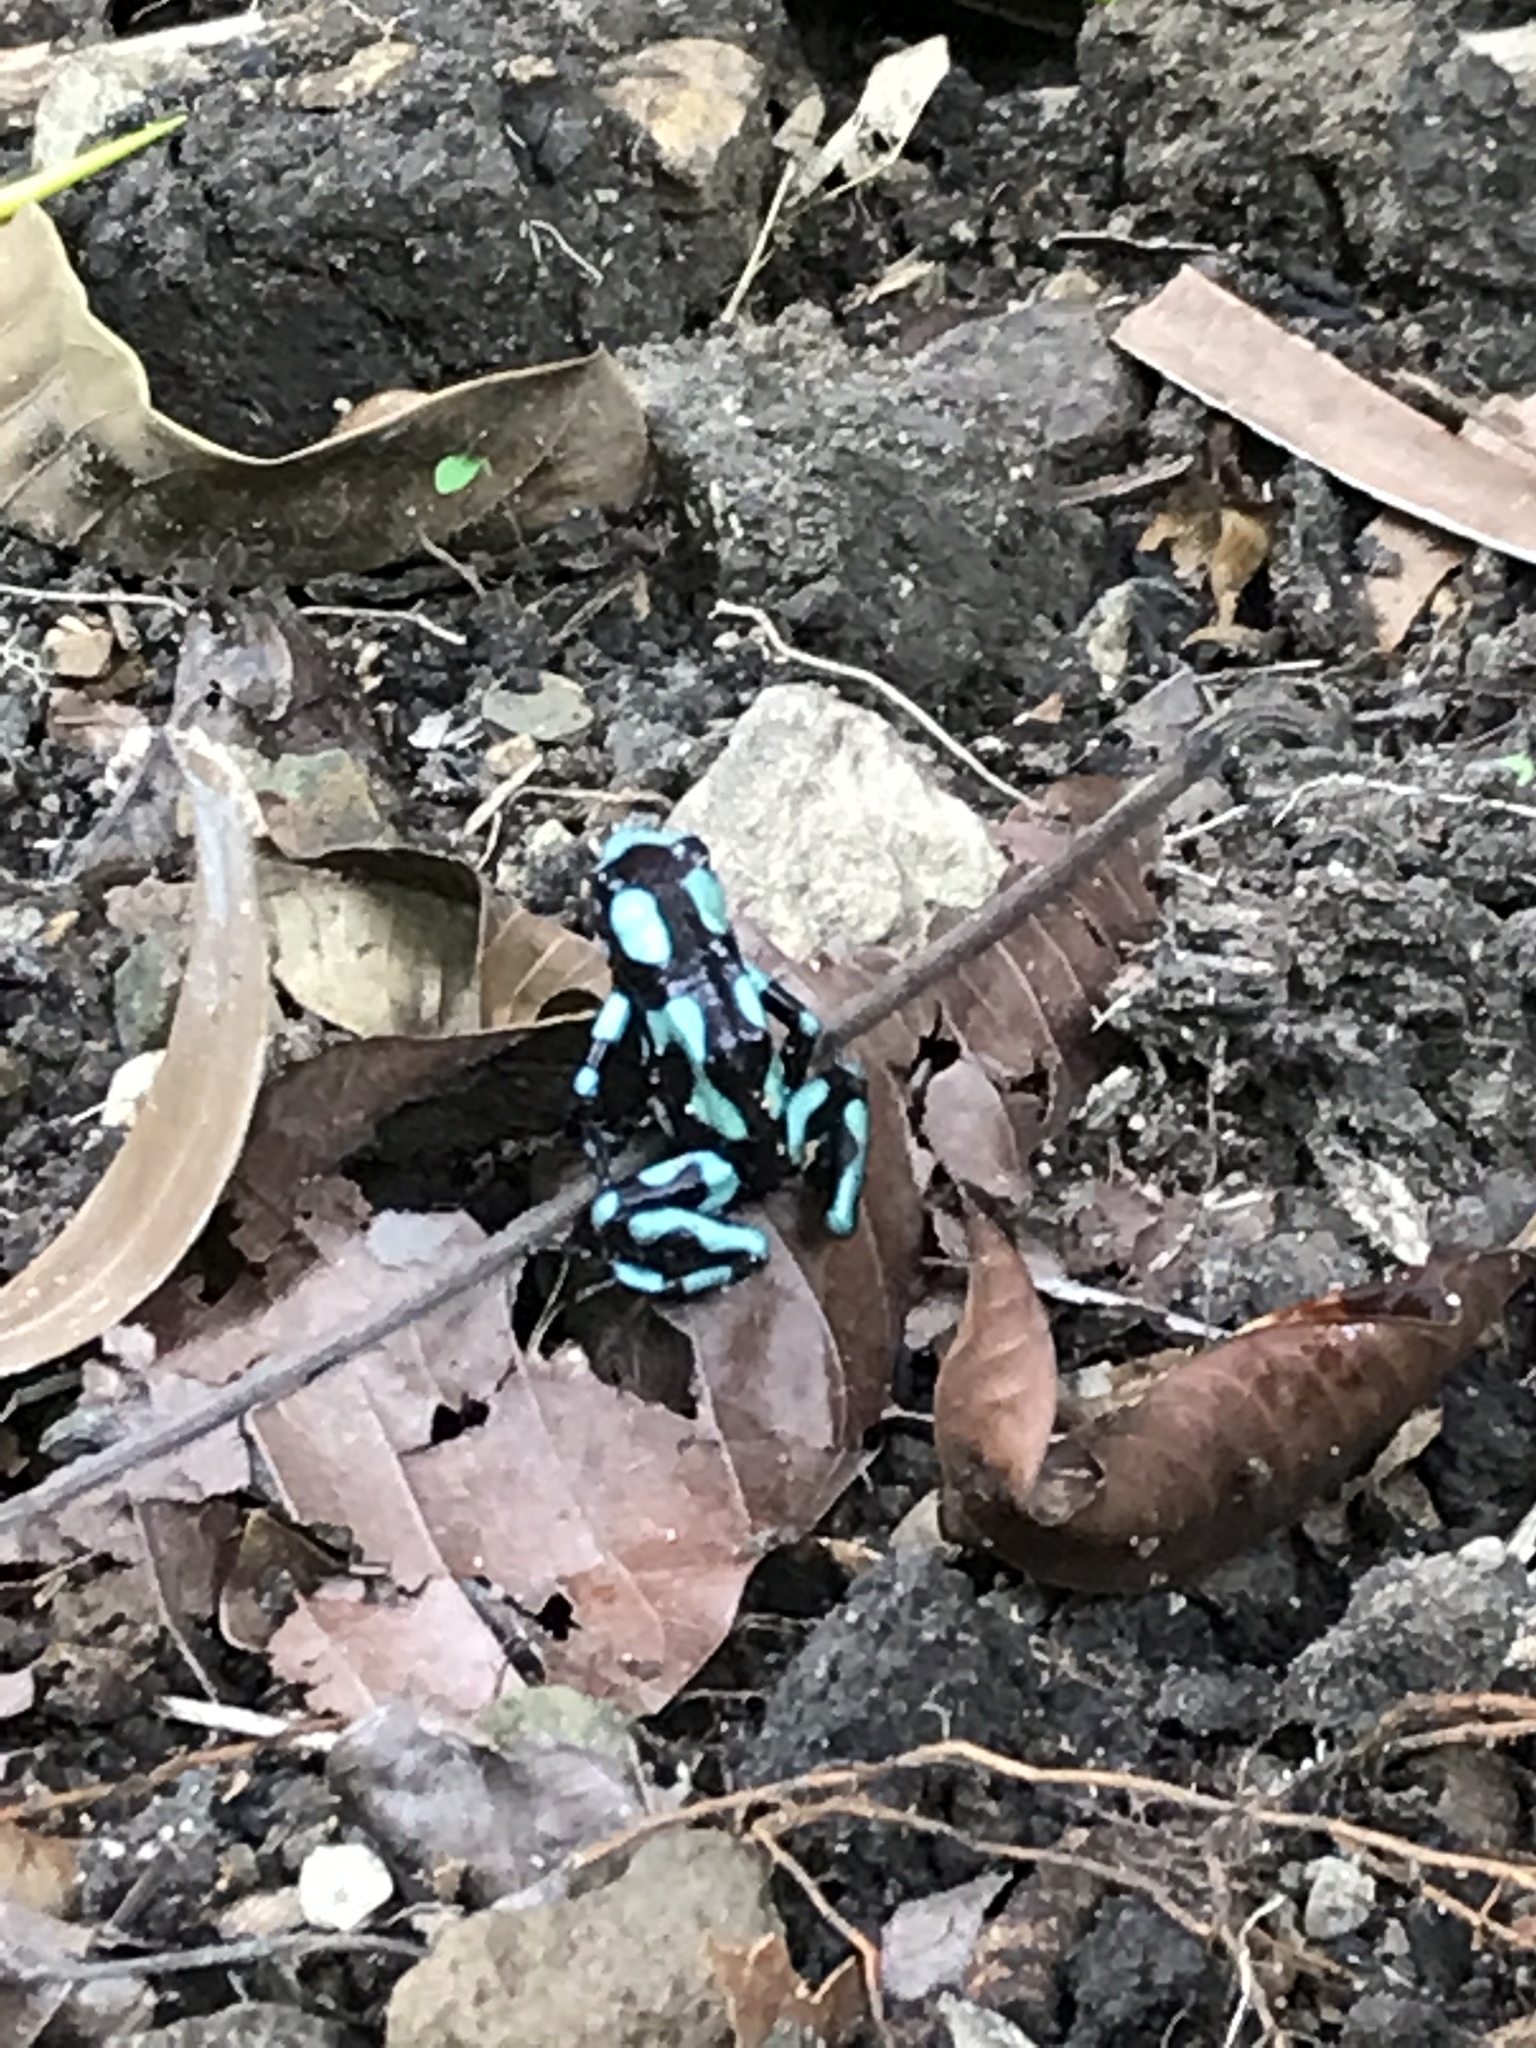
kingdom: Animalia
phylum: Chordata
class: Amphibia
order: Anura
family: Dendrobatidae
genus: Dendrobates
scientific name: Dendrobates auratus
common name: Green and black poison dart frog
